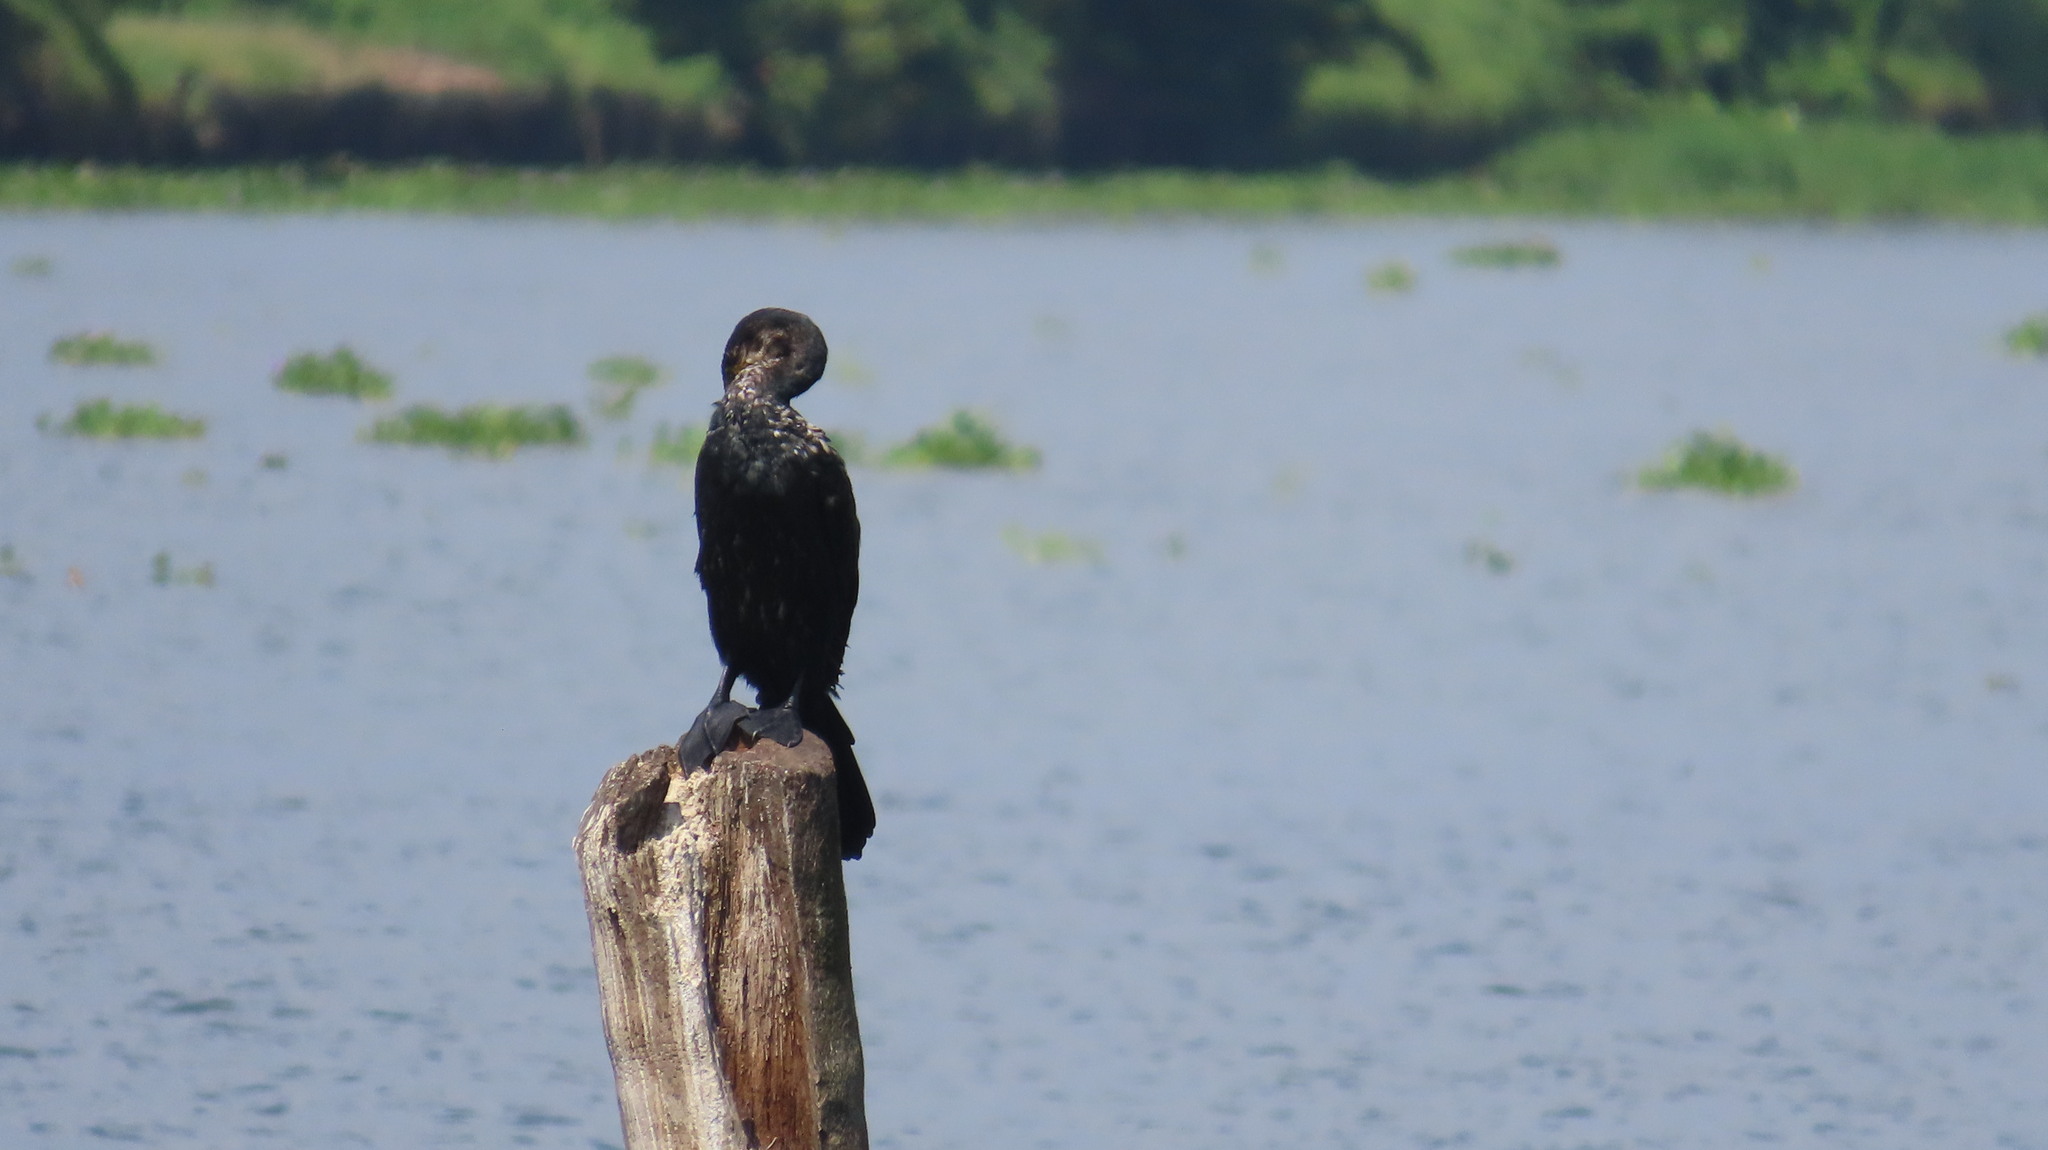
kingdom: Animalia
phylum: Chordata
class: Aves
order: Suliformes
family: Phalacrocoracidae
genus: Phalacrocorax
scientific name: Phalacrocorax carbo
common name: Great cormorant
